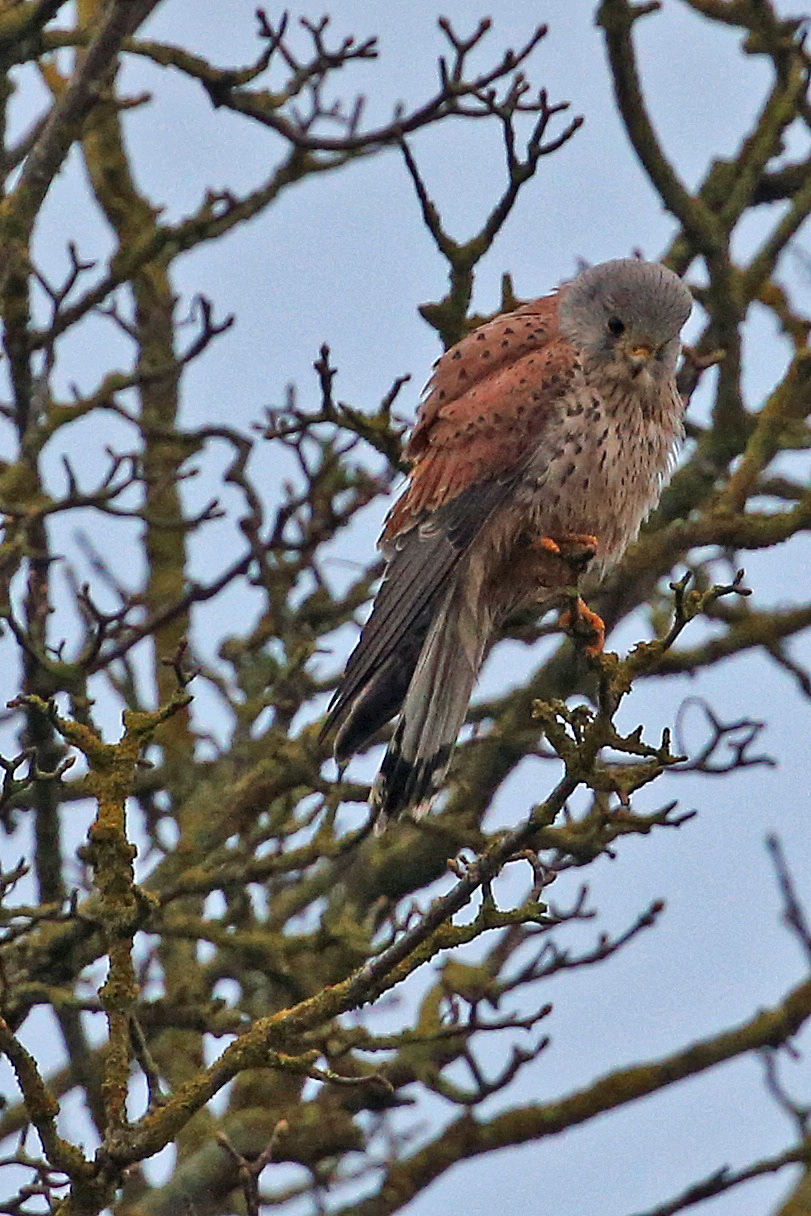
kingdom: Animalia
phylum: Chordata
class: Aves
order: Falconiformes
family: Falconidae
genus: Falco
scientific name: Falco tinnunculus
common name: Common kestrel
